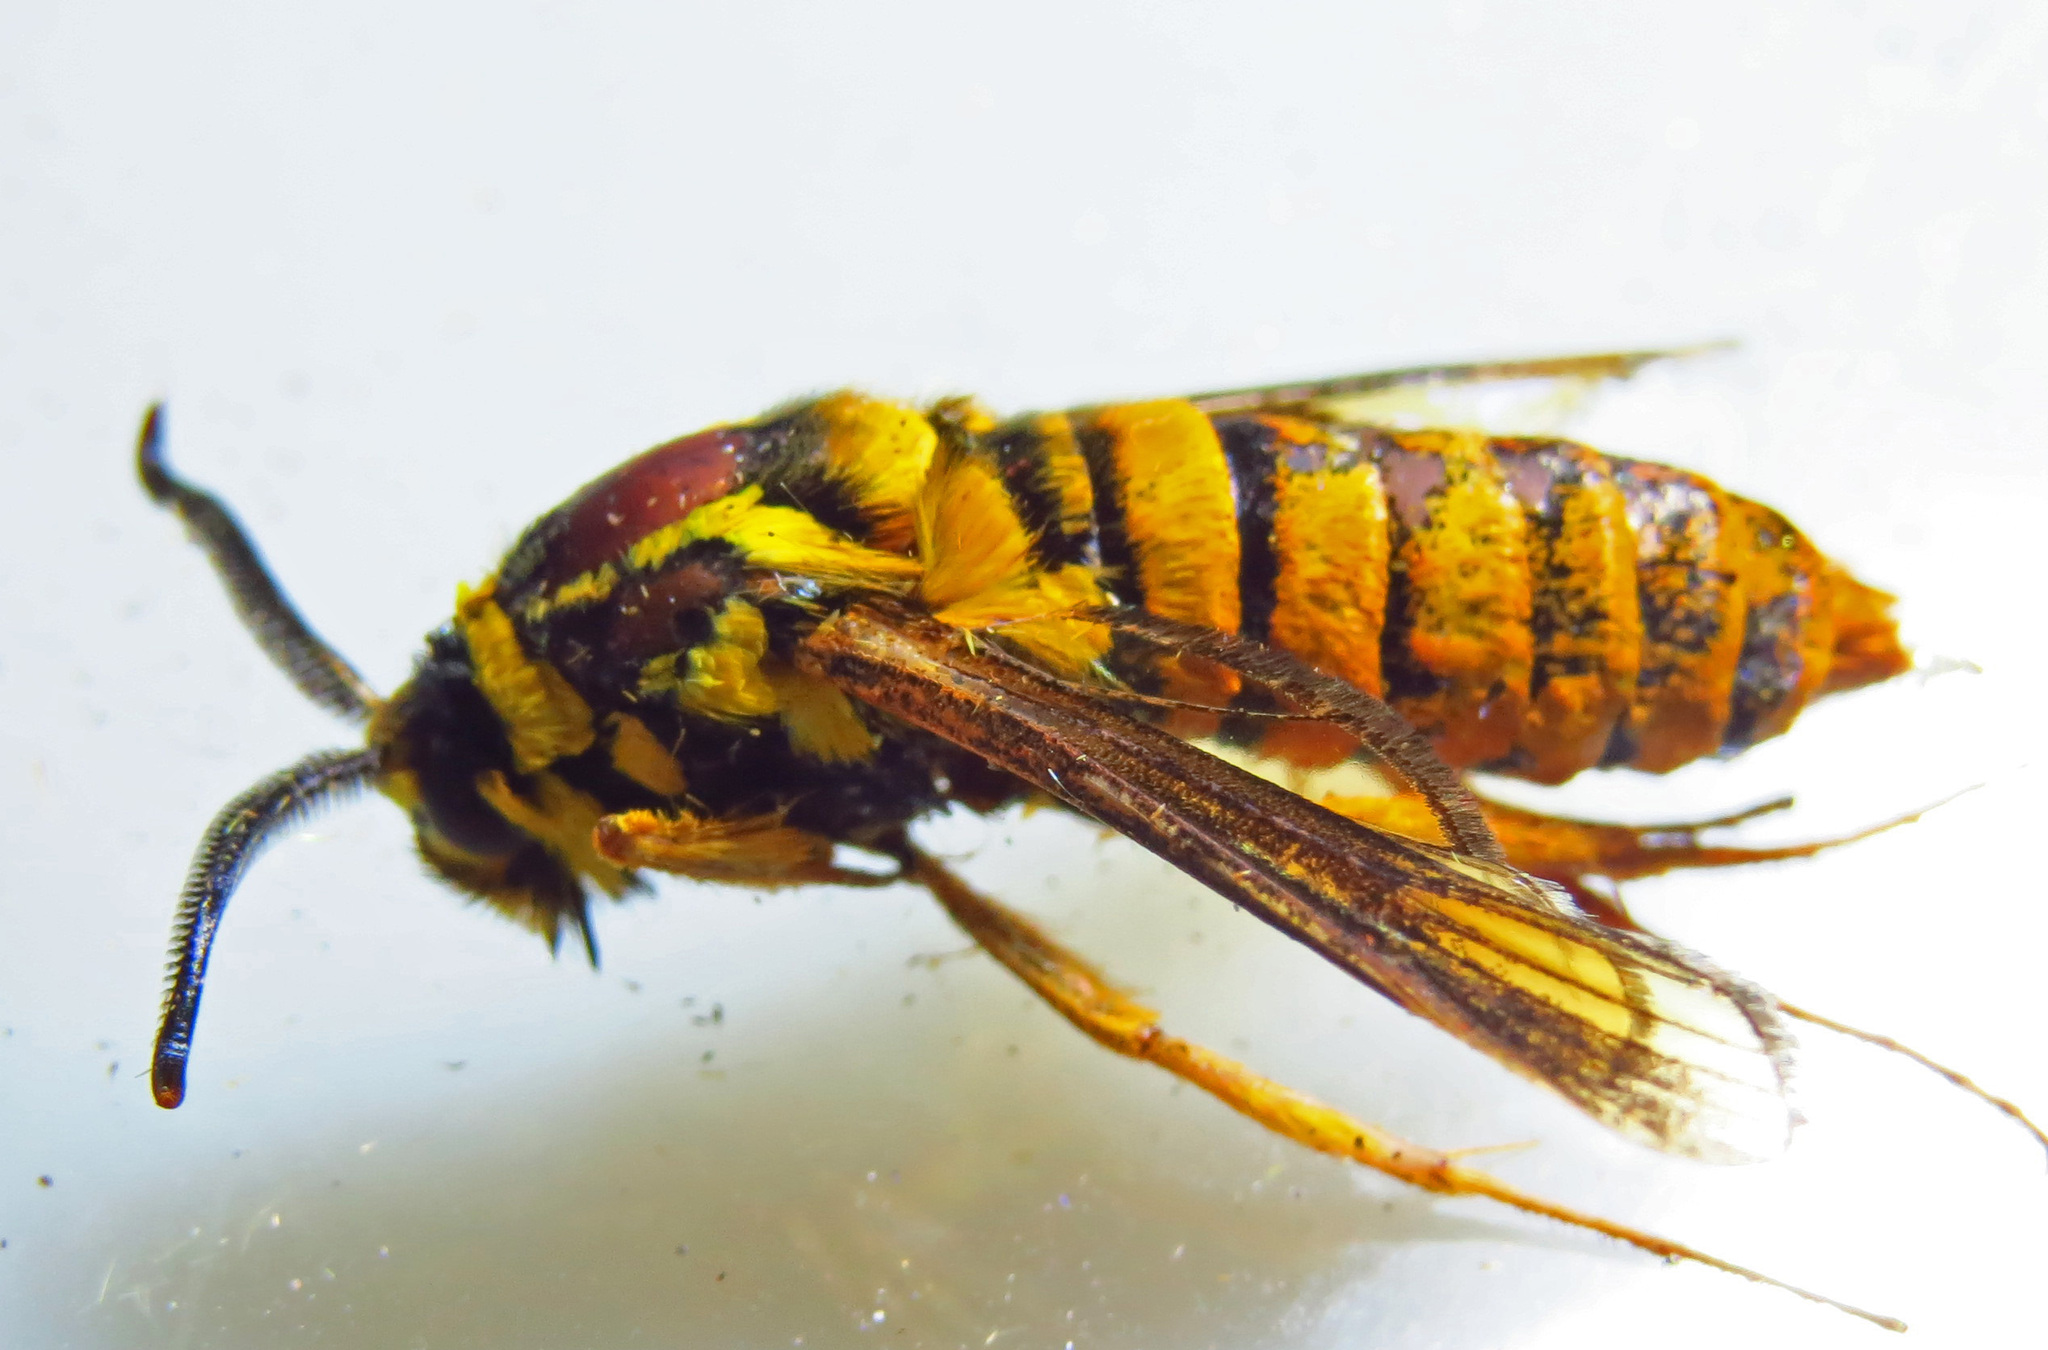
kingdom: Animalia
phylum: Arthropoda
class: Insecta
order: Lepidoptera
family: Sesiidae
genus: Paranthrene
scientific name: Paranthrene simulans
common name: Hornet clearwing moth
